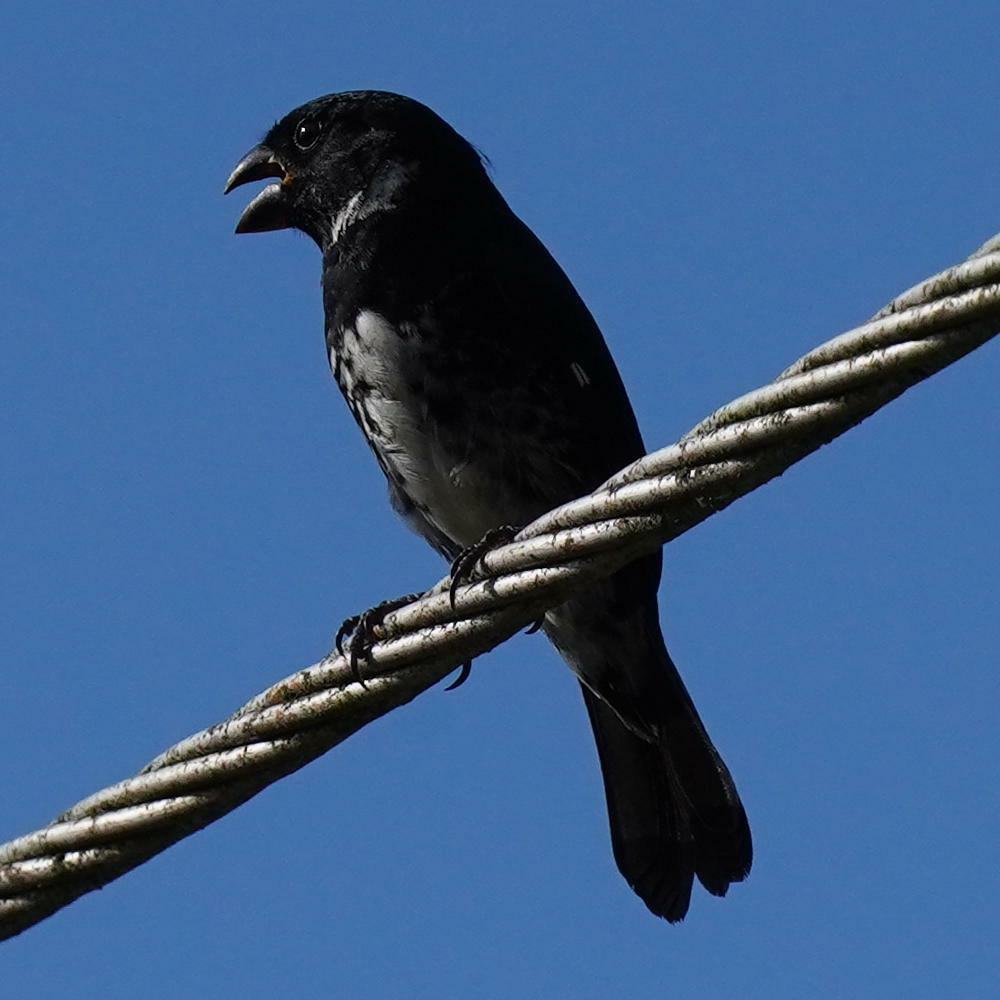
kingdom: Animalia
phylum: Chordata
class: Aves
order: Passeriformes
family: Thraupidae
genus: Sporophila
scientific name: Sporophila corvina
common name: Variable seedeater
